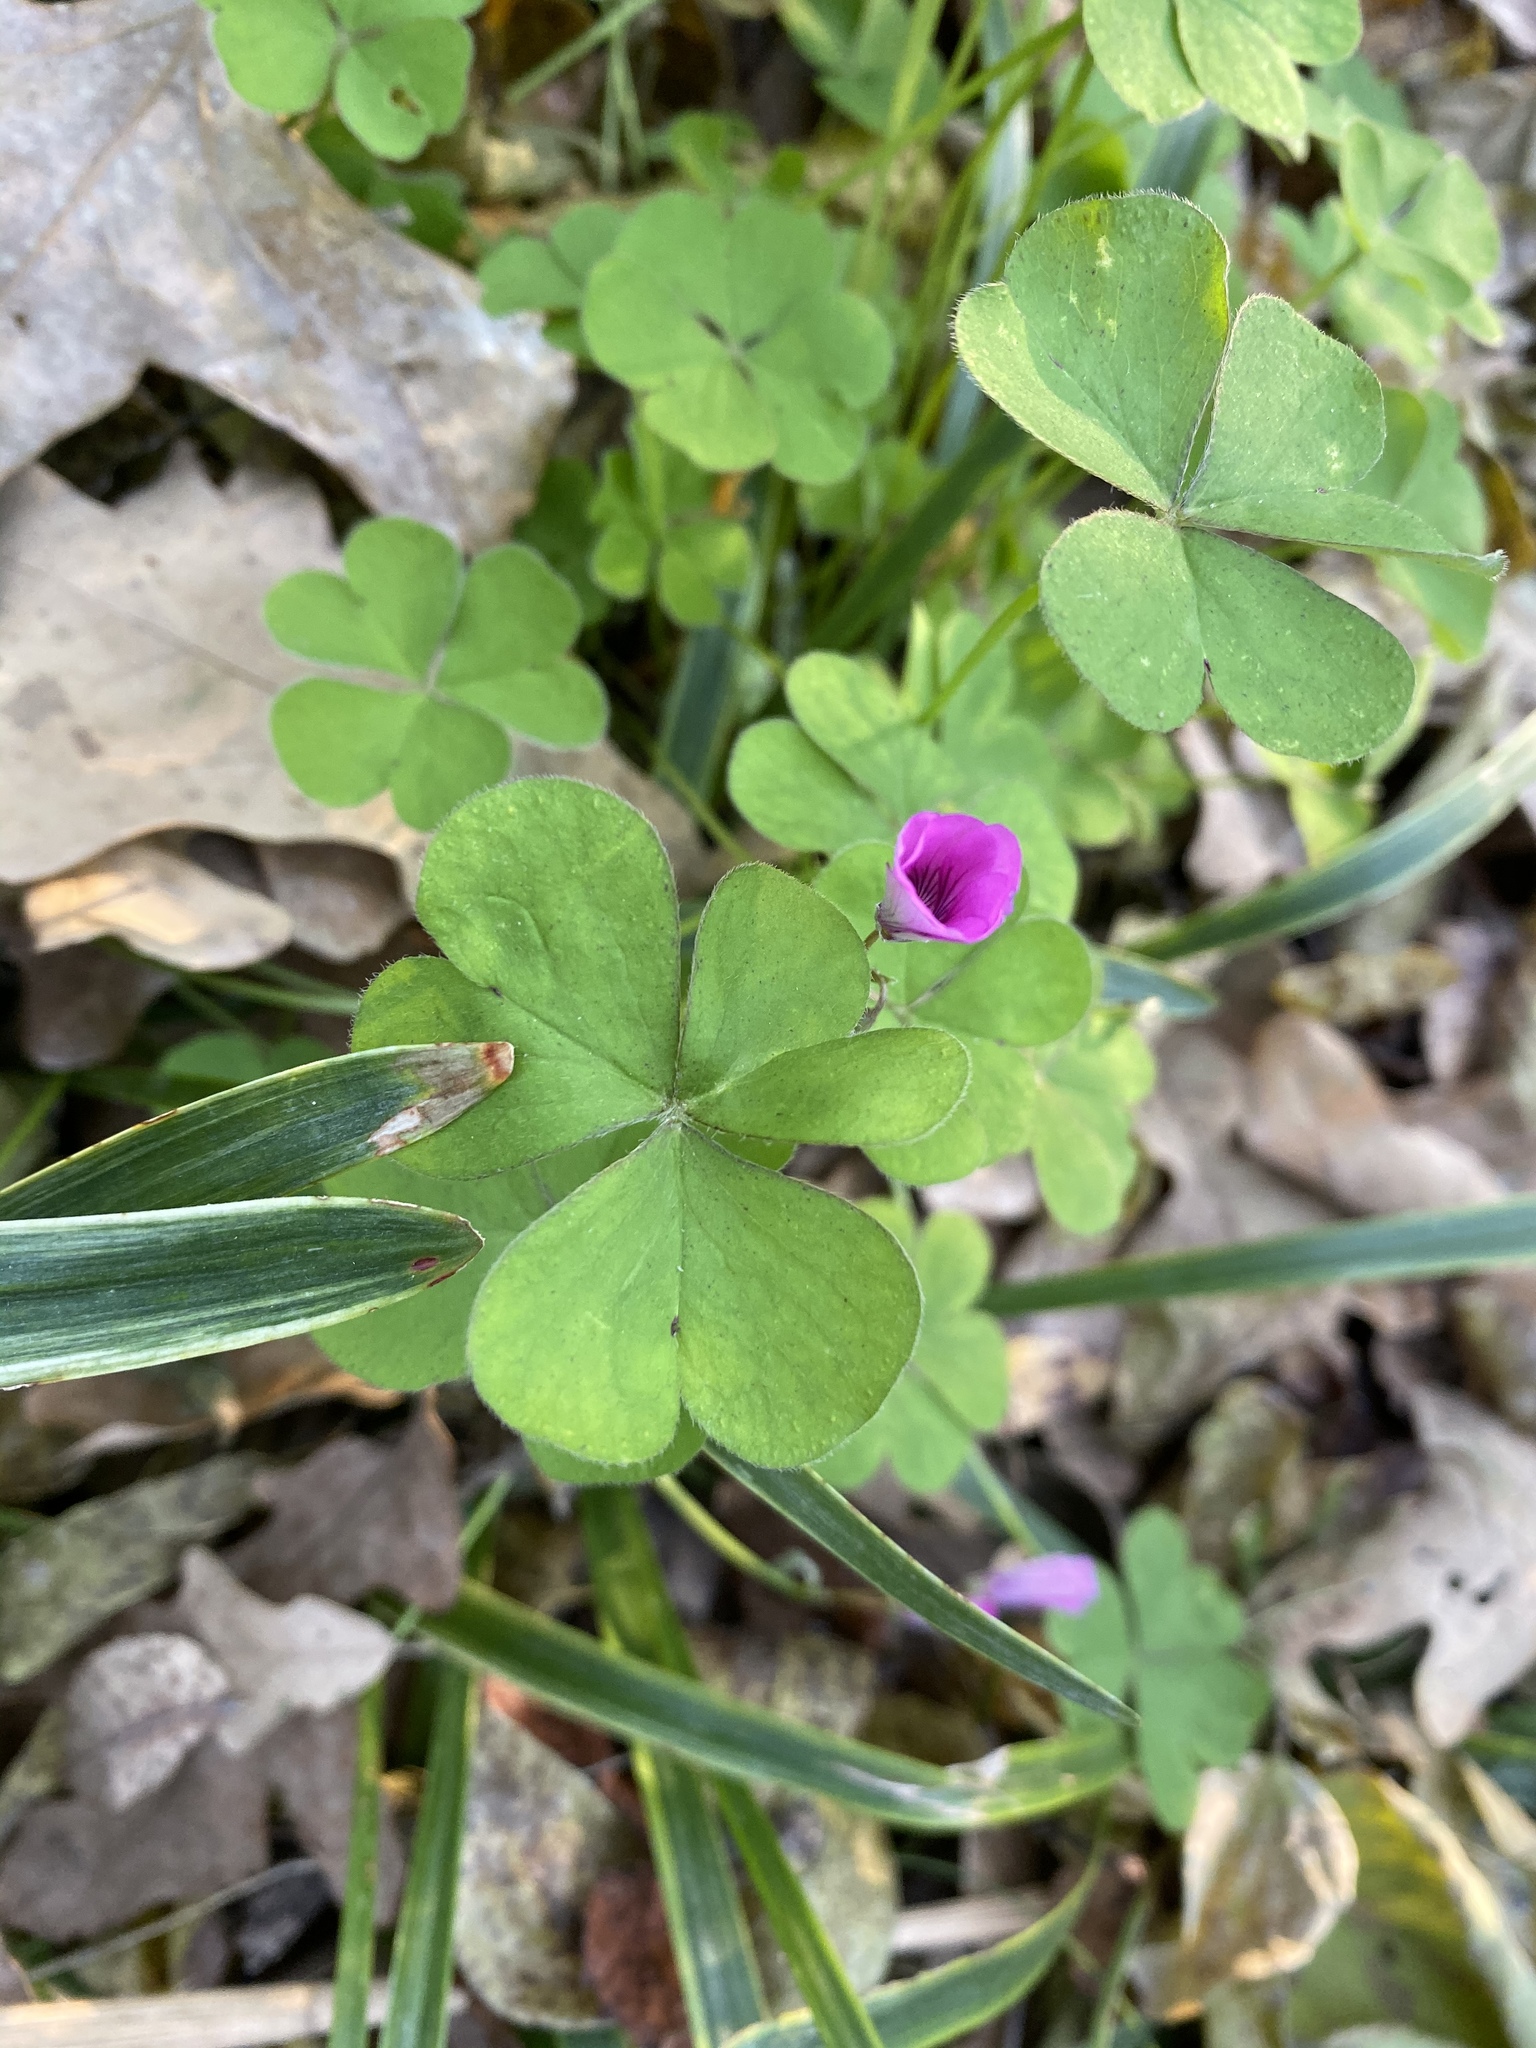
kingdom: Plantae
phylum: Tracheophyta
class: Magnoliopsida
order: Oxalidales
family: Oxalidaceae
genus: Oxalis
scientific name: Oxalis articulata
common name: Pink-sorrel
